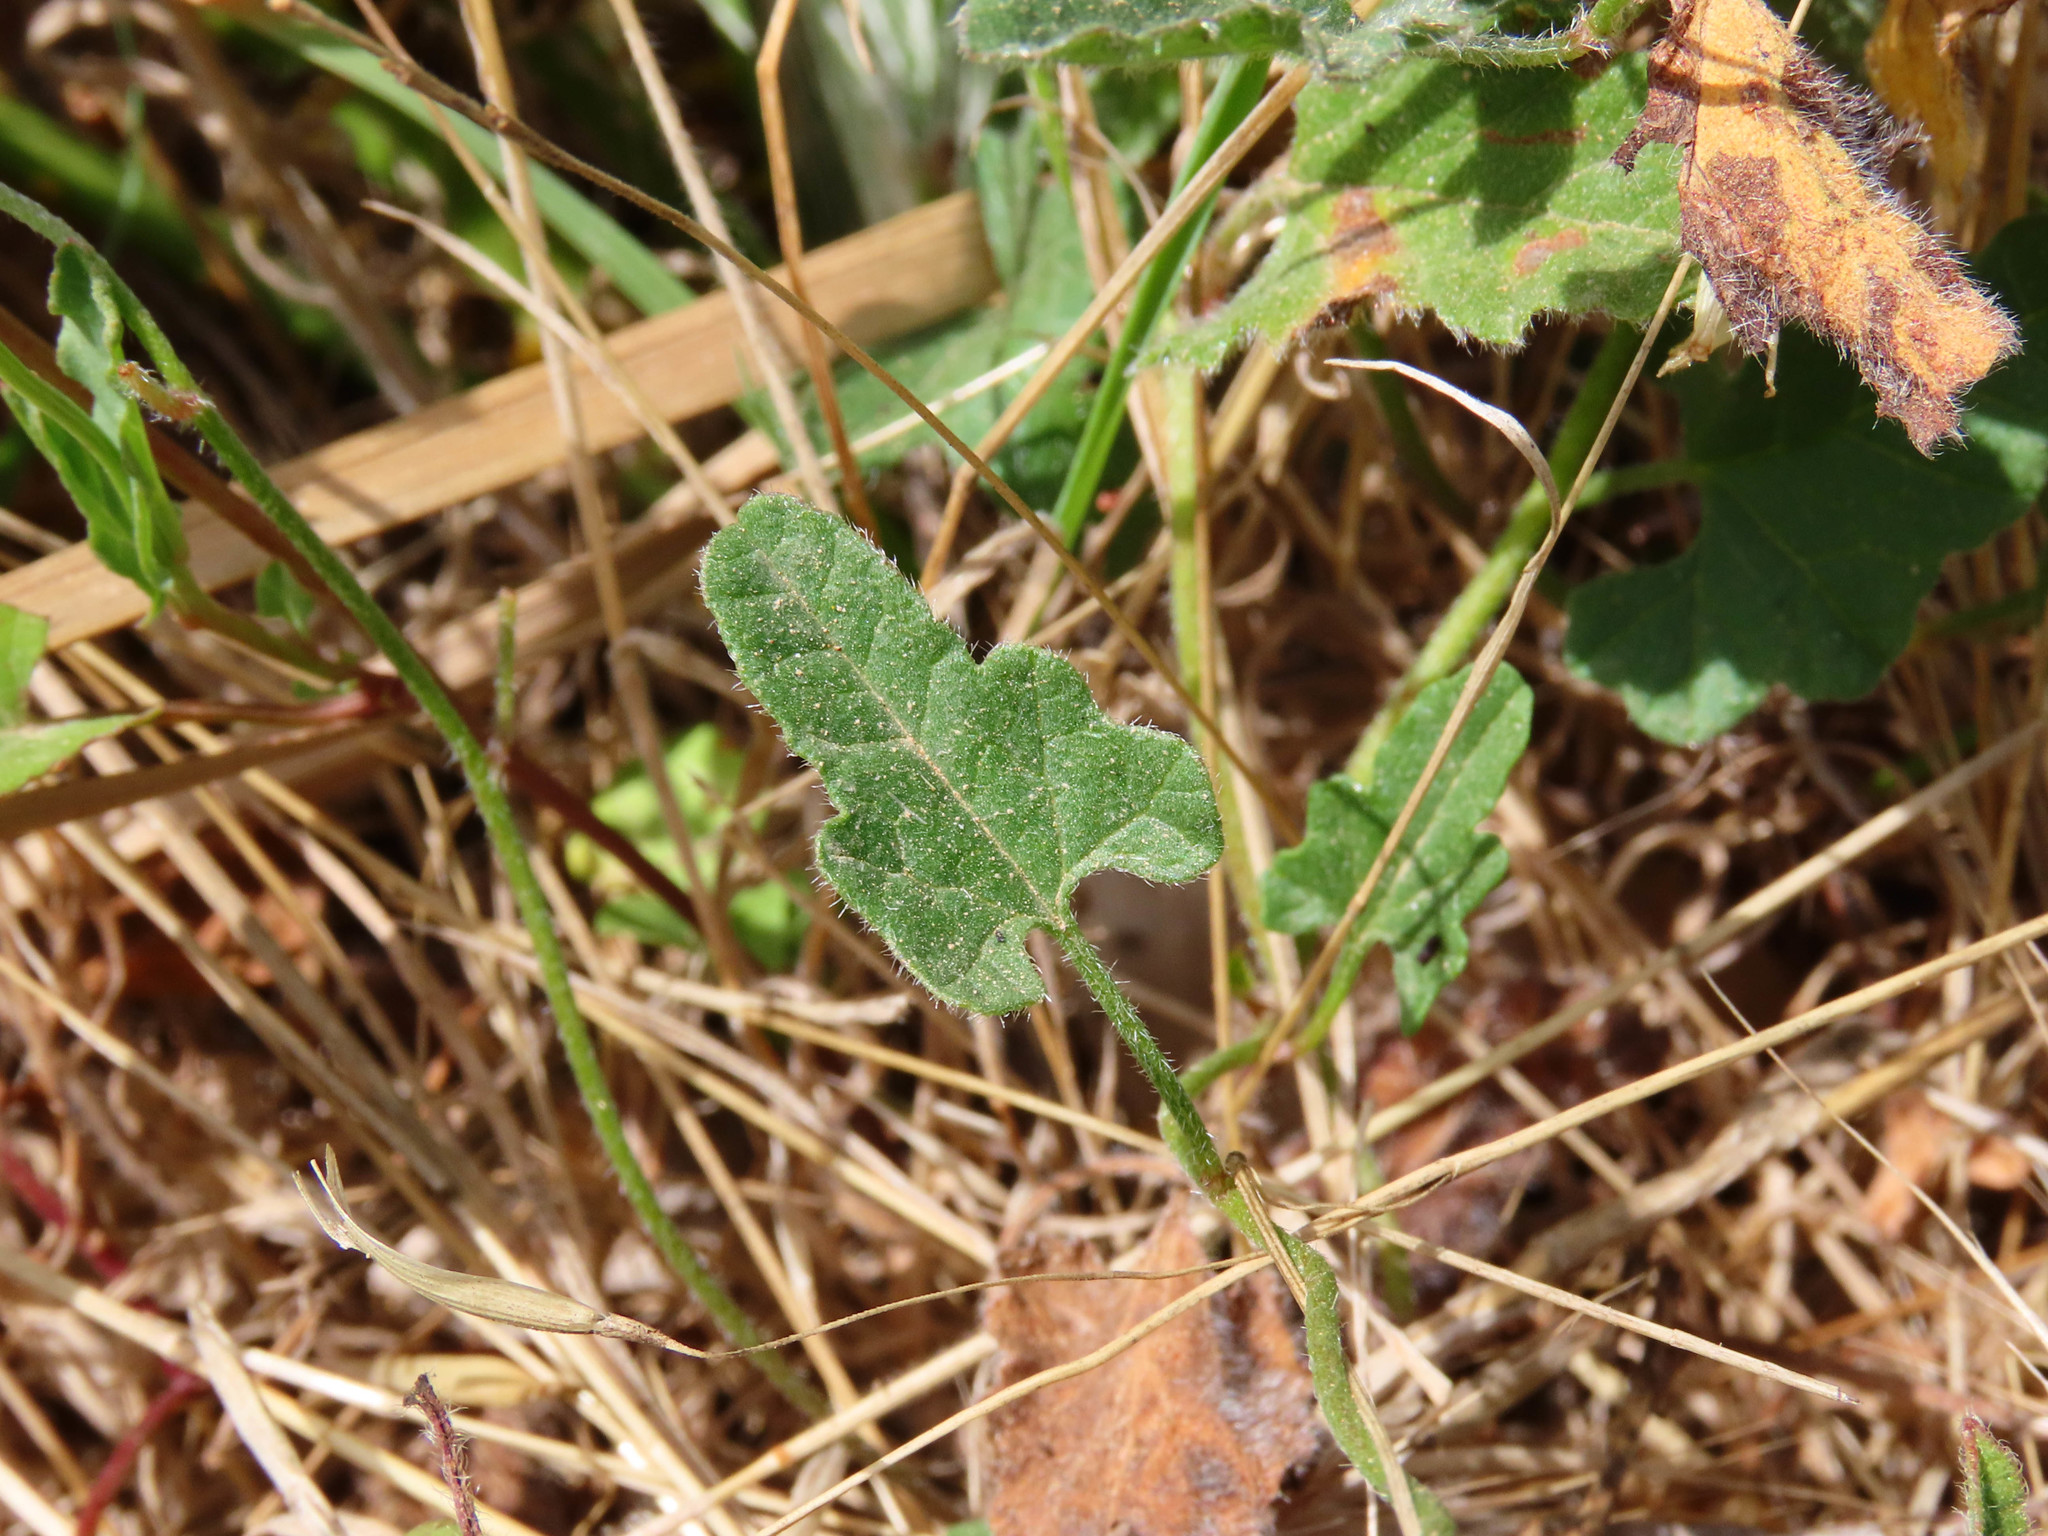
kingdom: Plantae
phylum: Tracheophyta
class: Magnoliopsida
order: Solanales
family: Convolvulaceae
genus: Convolvulus
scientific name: Convolvulus althaeoides
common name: Mallow bindweed
